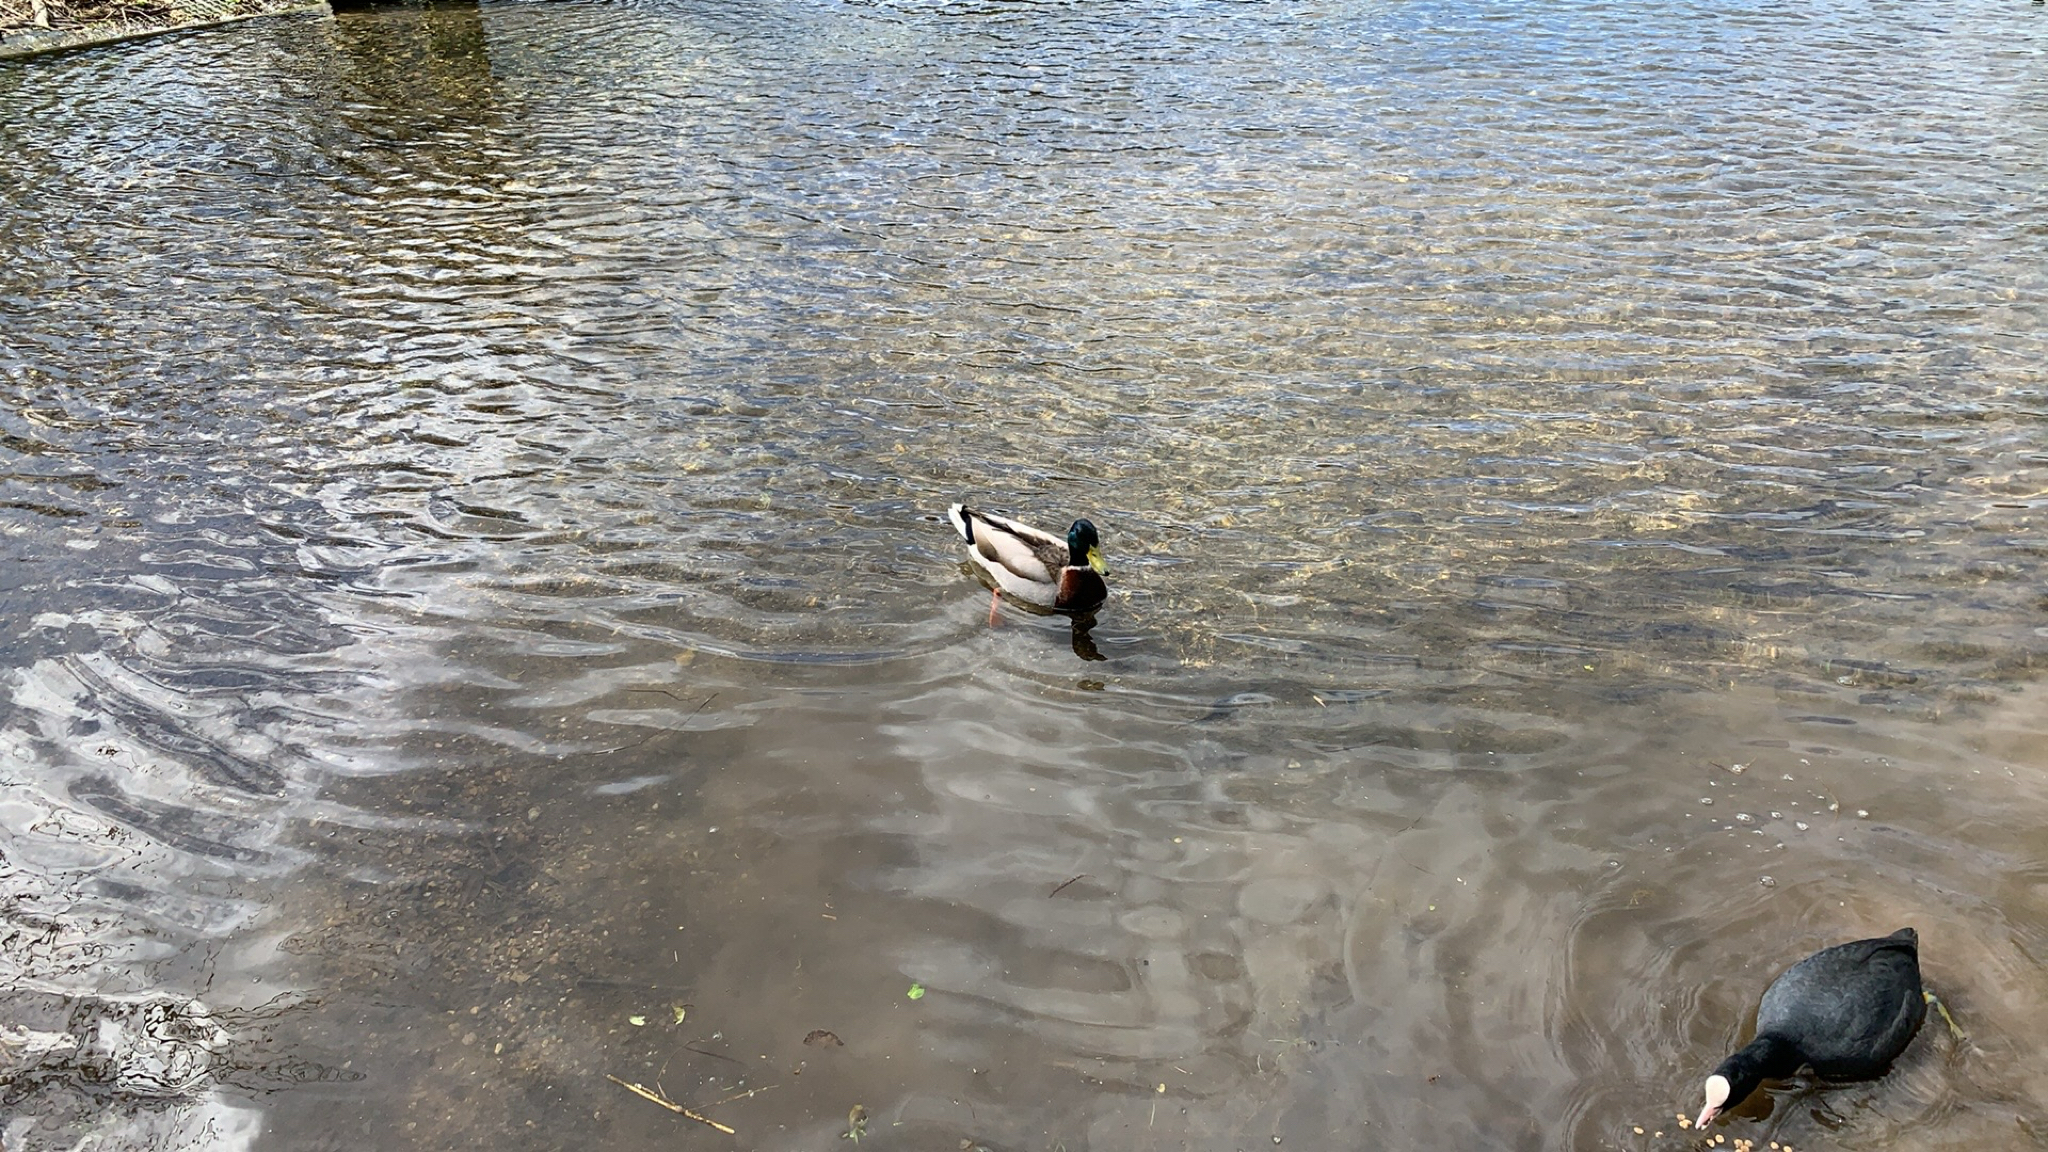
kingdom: Animalia
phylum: Chordata
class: Aves
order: Anseriformes
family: Anatidae
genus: Anas
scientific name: Anas platyrhynchos
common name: Mallard
